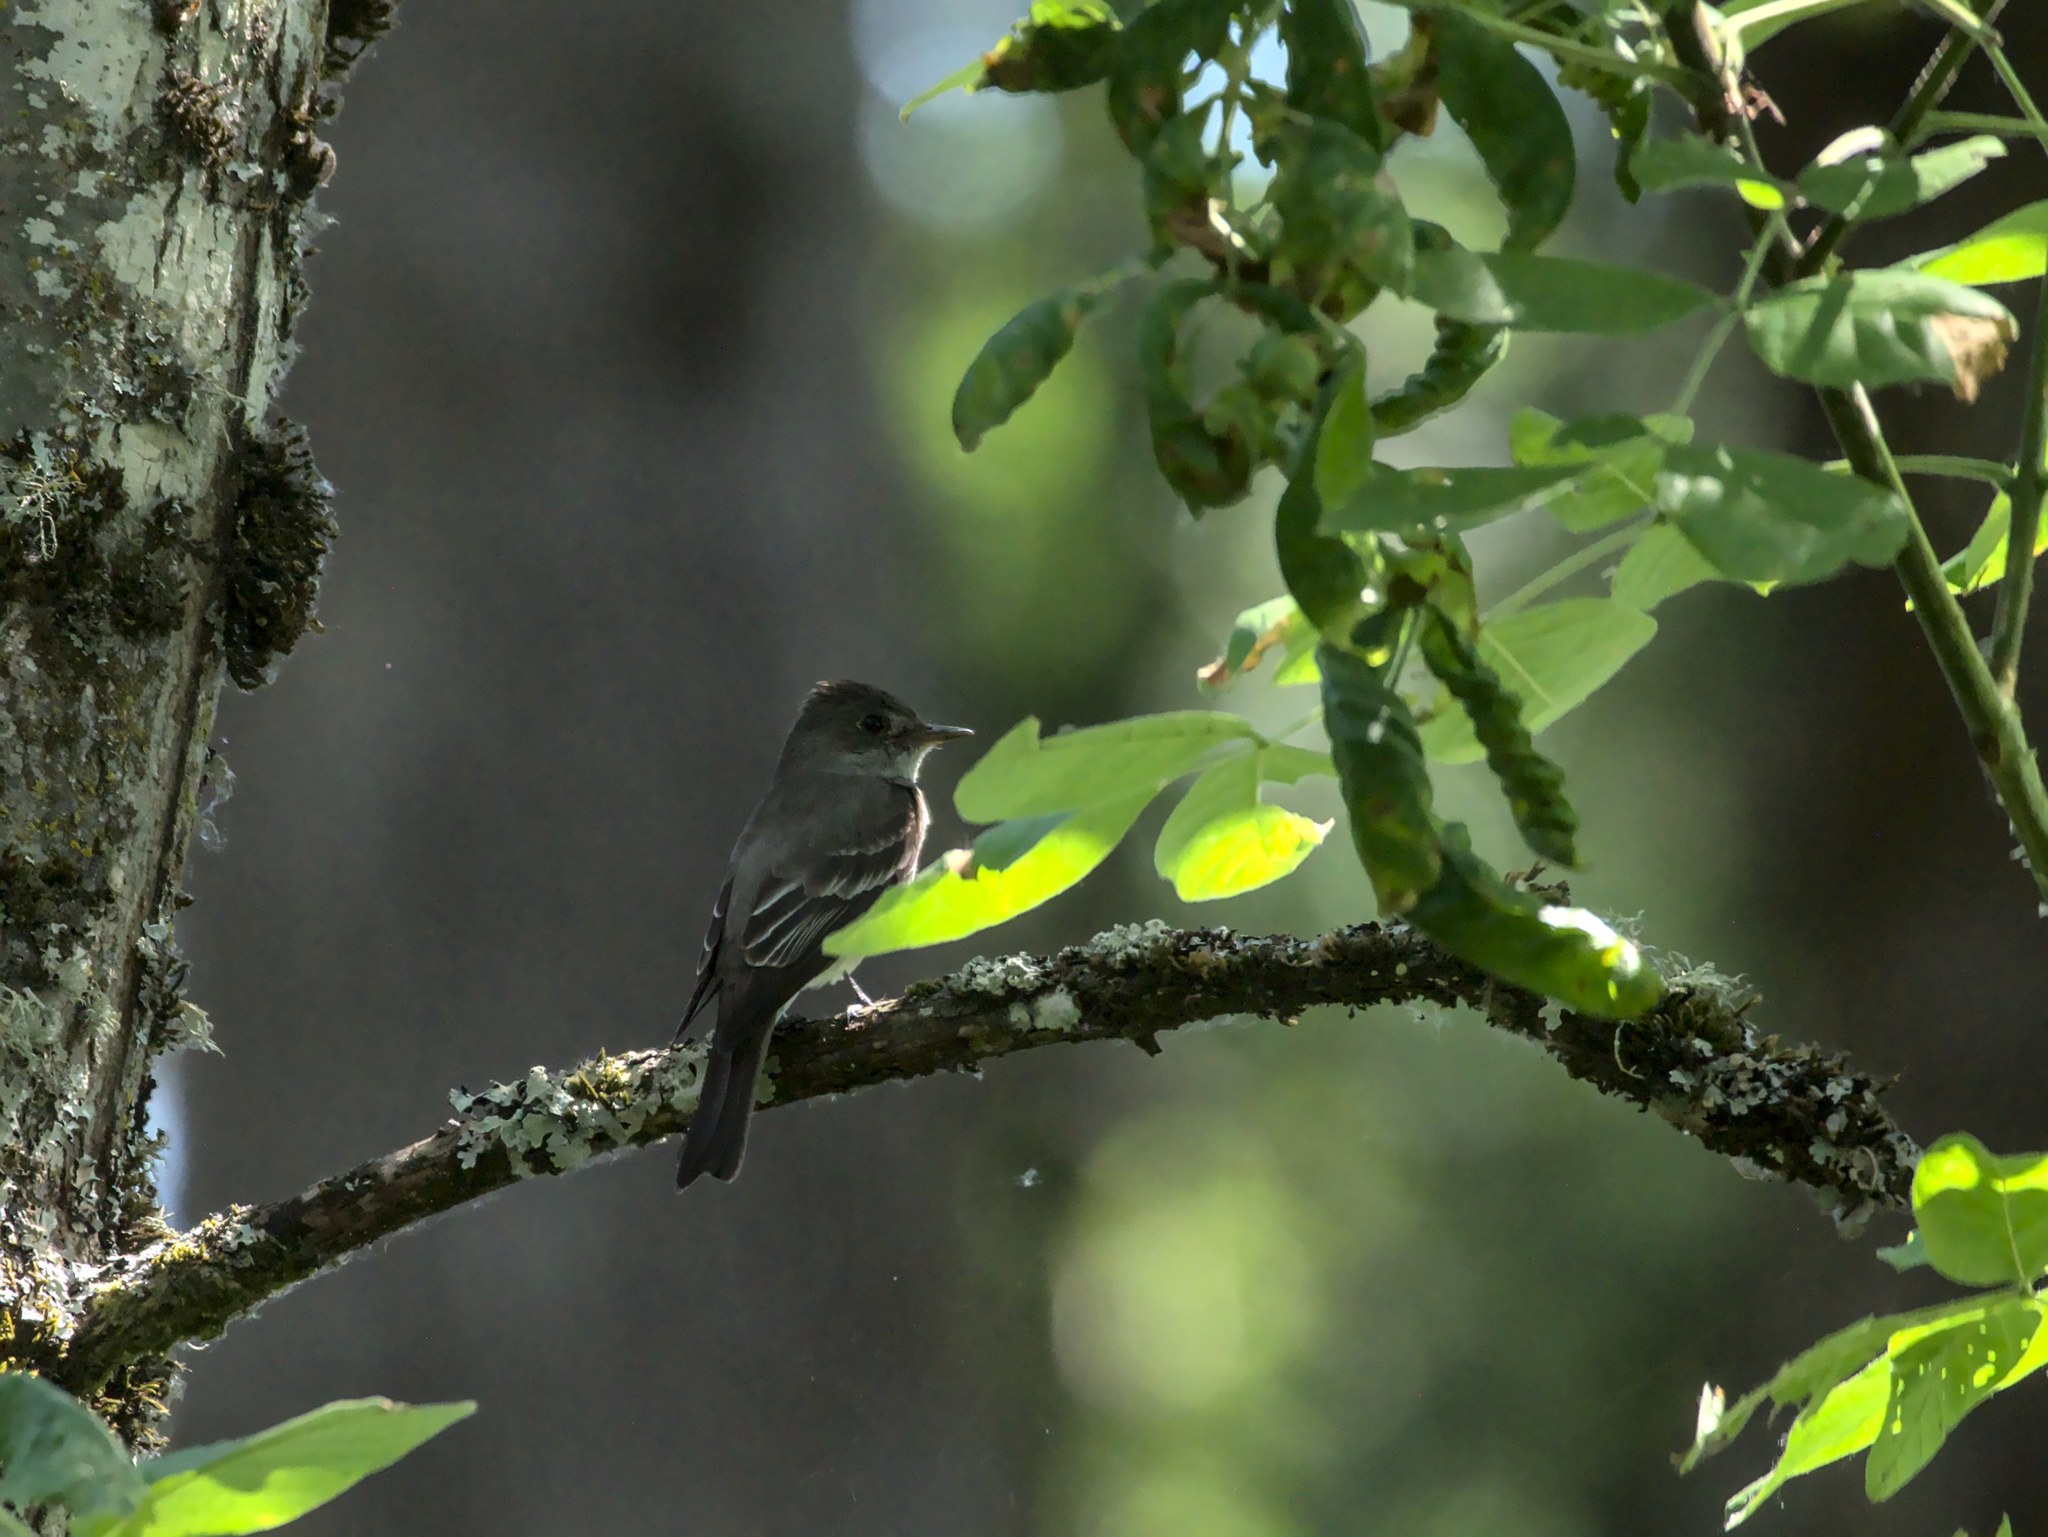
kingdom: Animalia
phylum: Chordata
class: Aves
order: Passeriformes
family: Tyrannidae
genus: Contopus
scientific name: Contopus sordidulus
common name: Western wood-pewee
